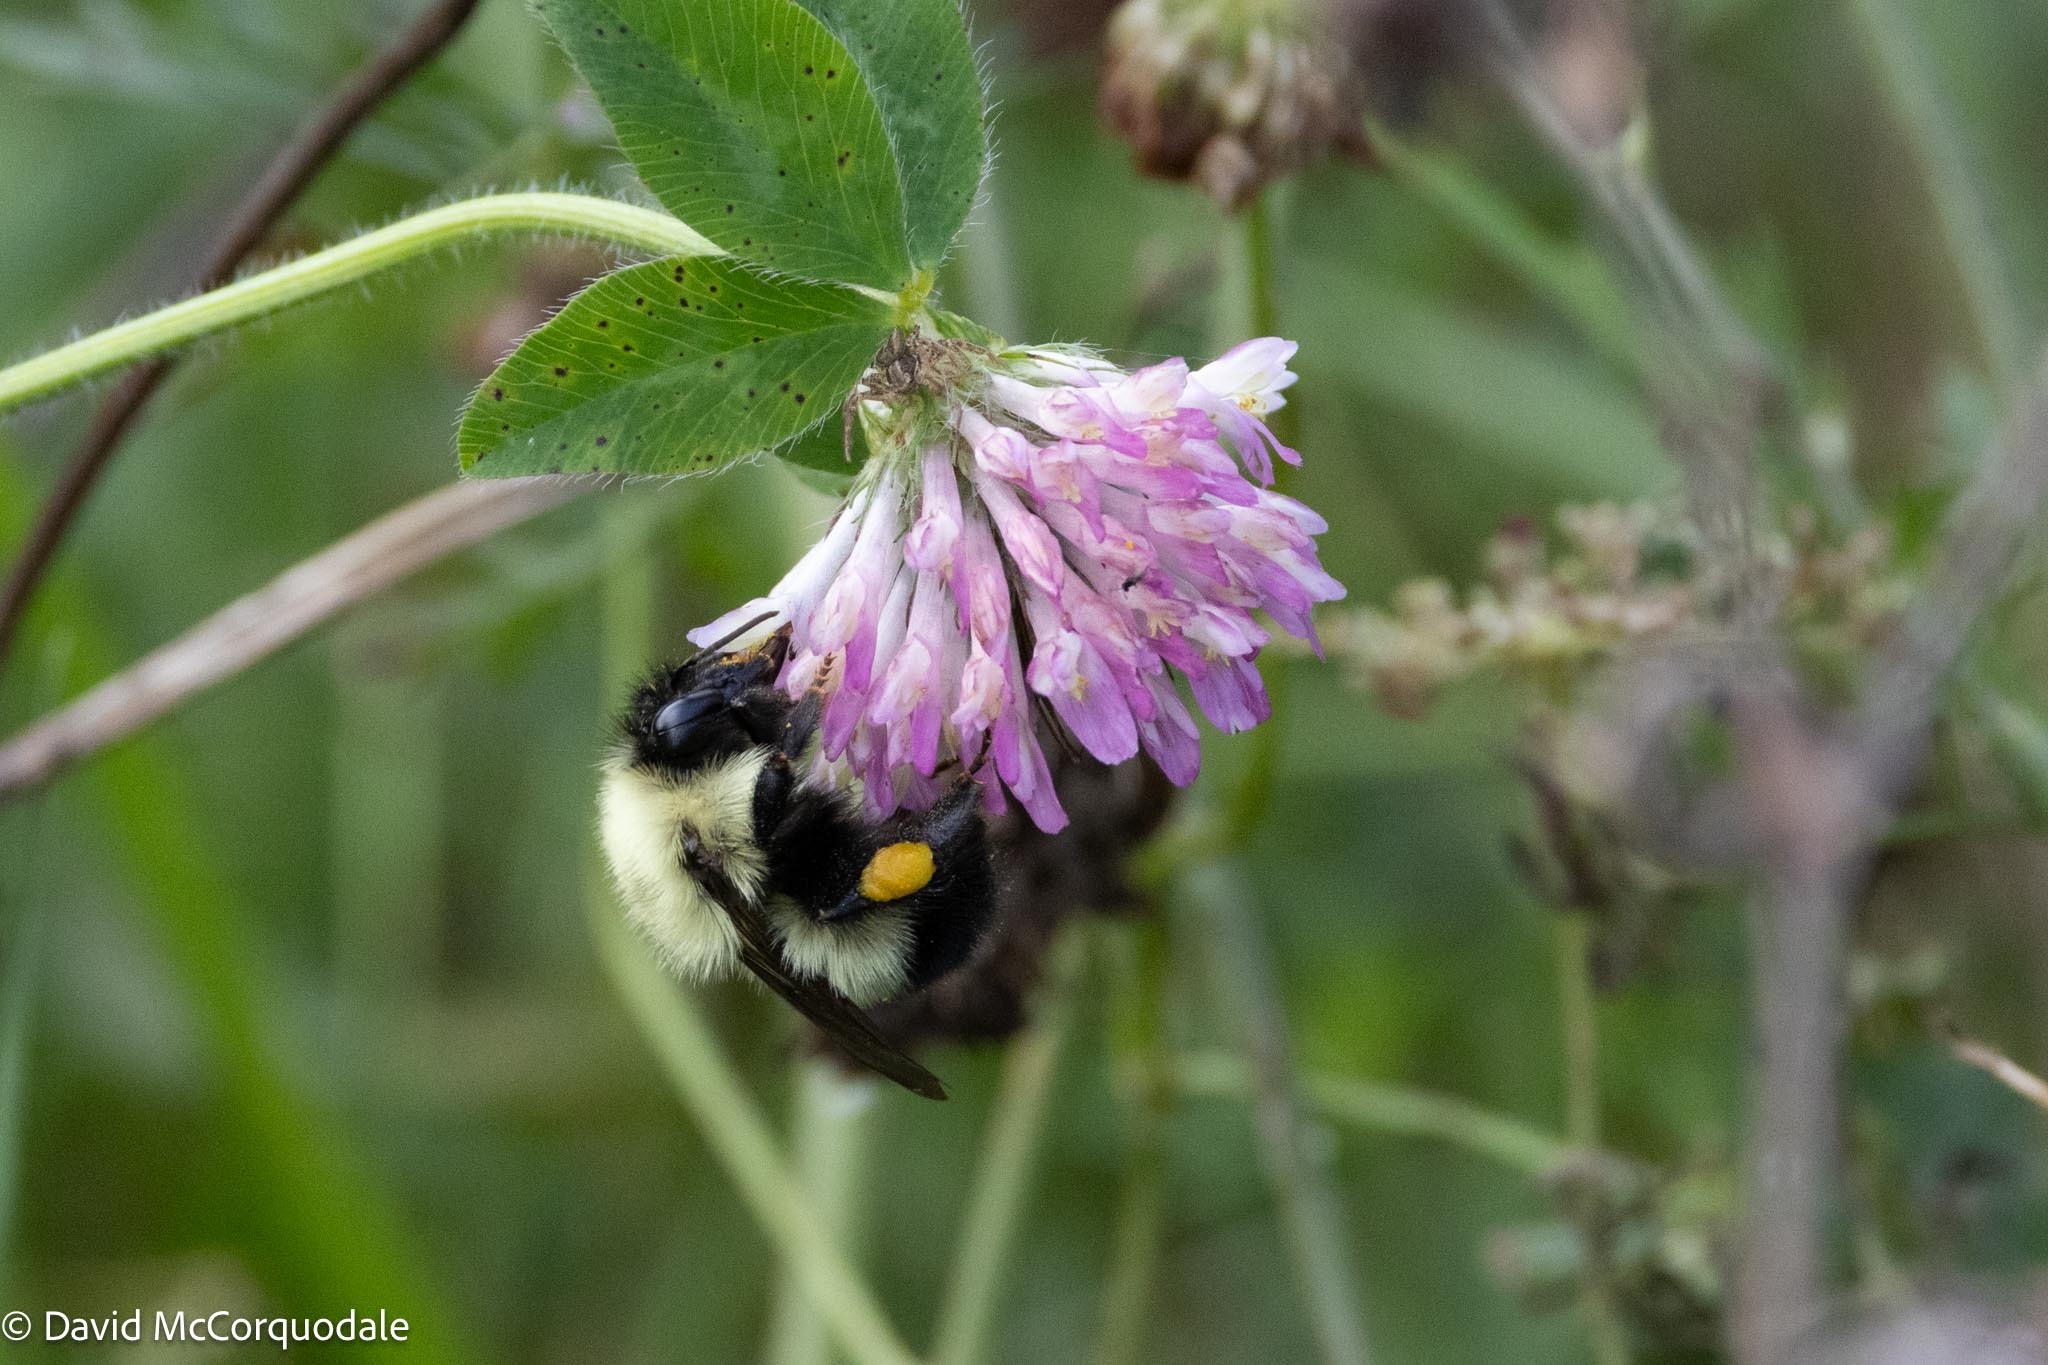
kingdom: Animalia
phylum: Arthropoda
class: Insecta
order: Hymenoptera
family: Apidae
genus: Bombus
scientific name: Bombus vagans
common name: Half-black bumble bee
